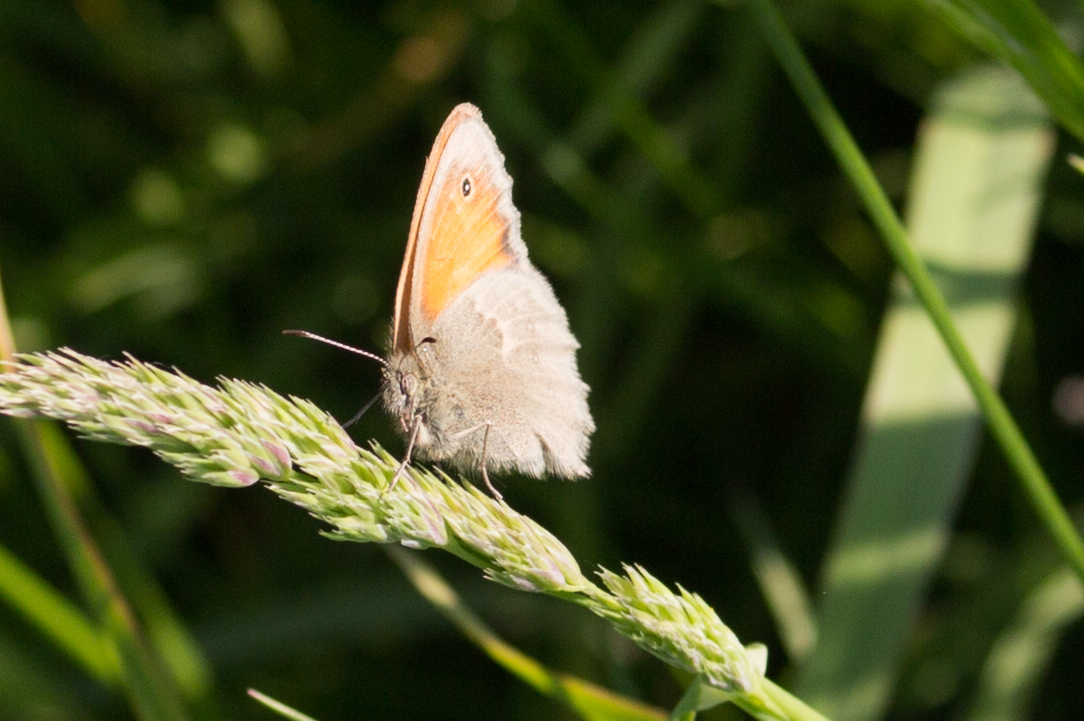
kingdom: Animalia
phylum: Arthropoda
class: Insecta
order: Lepidoptera
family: Nymphalidae
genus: Coenonympha
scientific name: Coenonympha pamphilus
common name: Small heath
